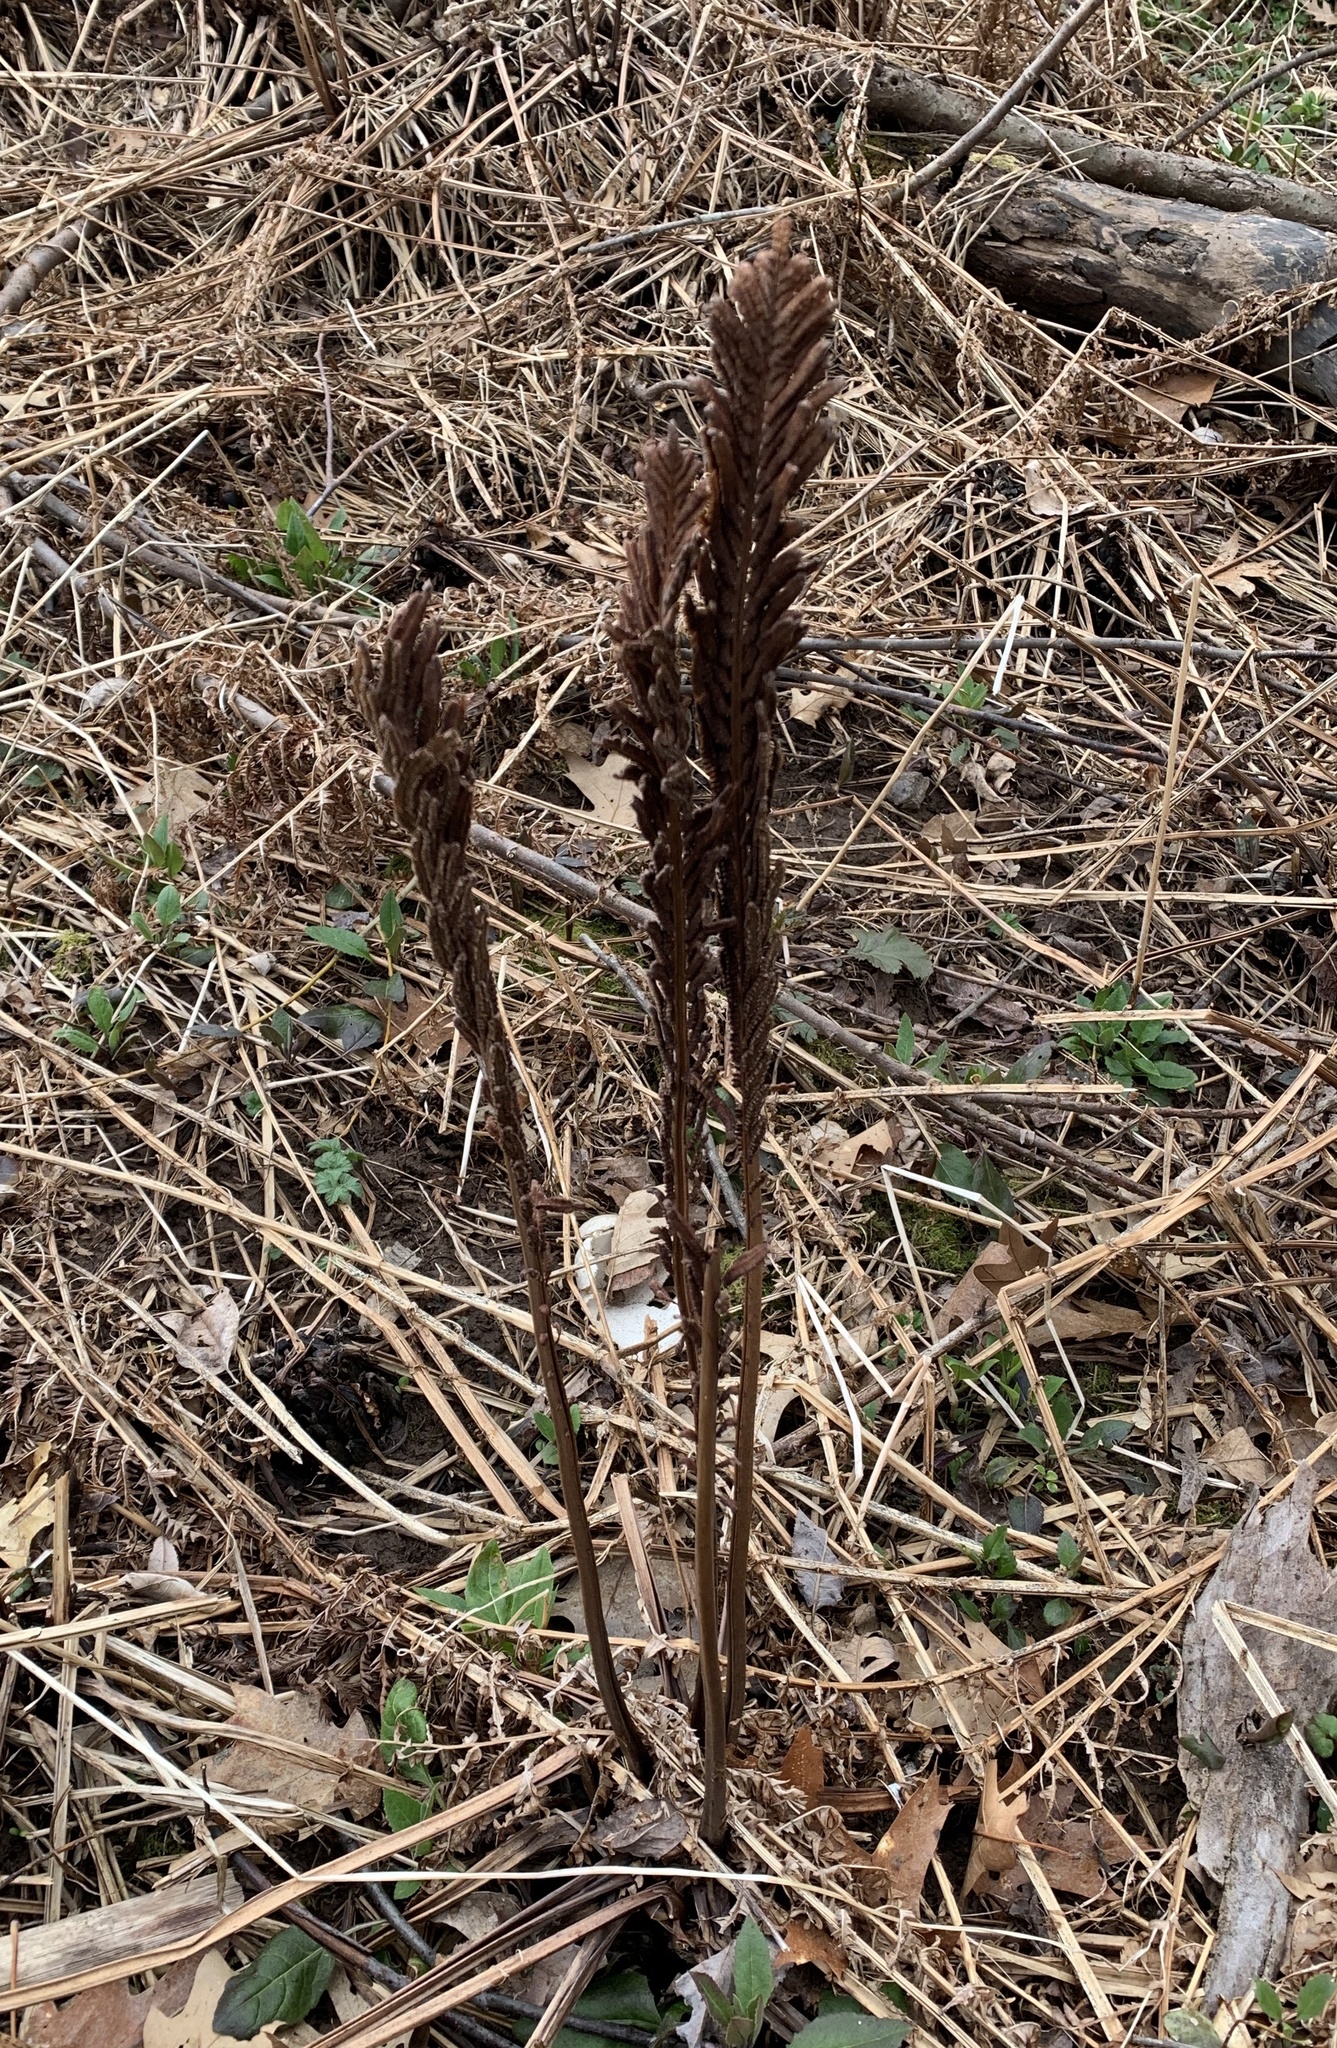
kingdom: Plantae
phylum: Tracheophyta
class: Polypodiopsida
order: Polypodiales
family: Onocleaceae
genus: Matteuccia
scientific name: Matteuccia struthiopteris
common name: Ostrich fern
